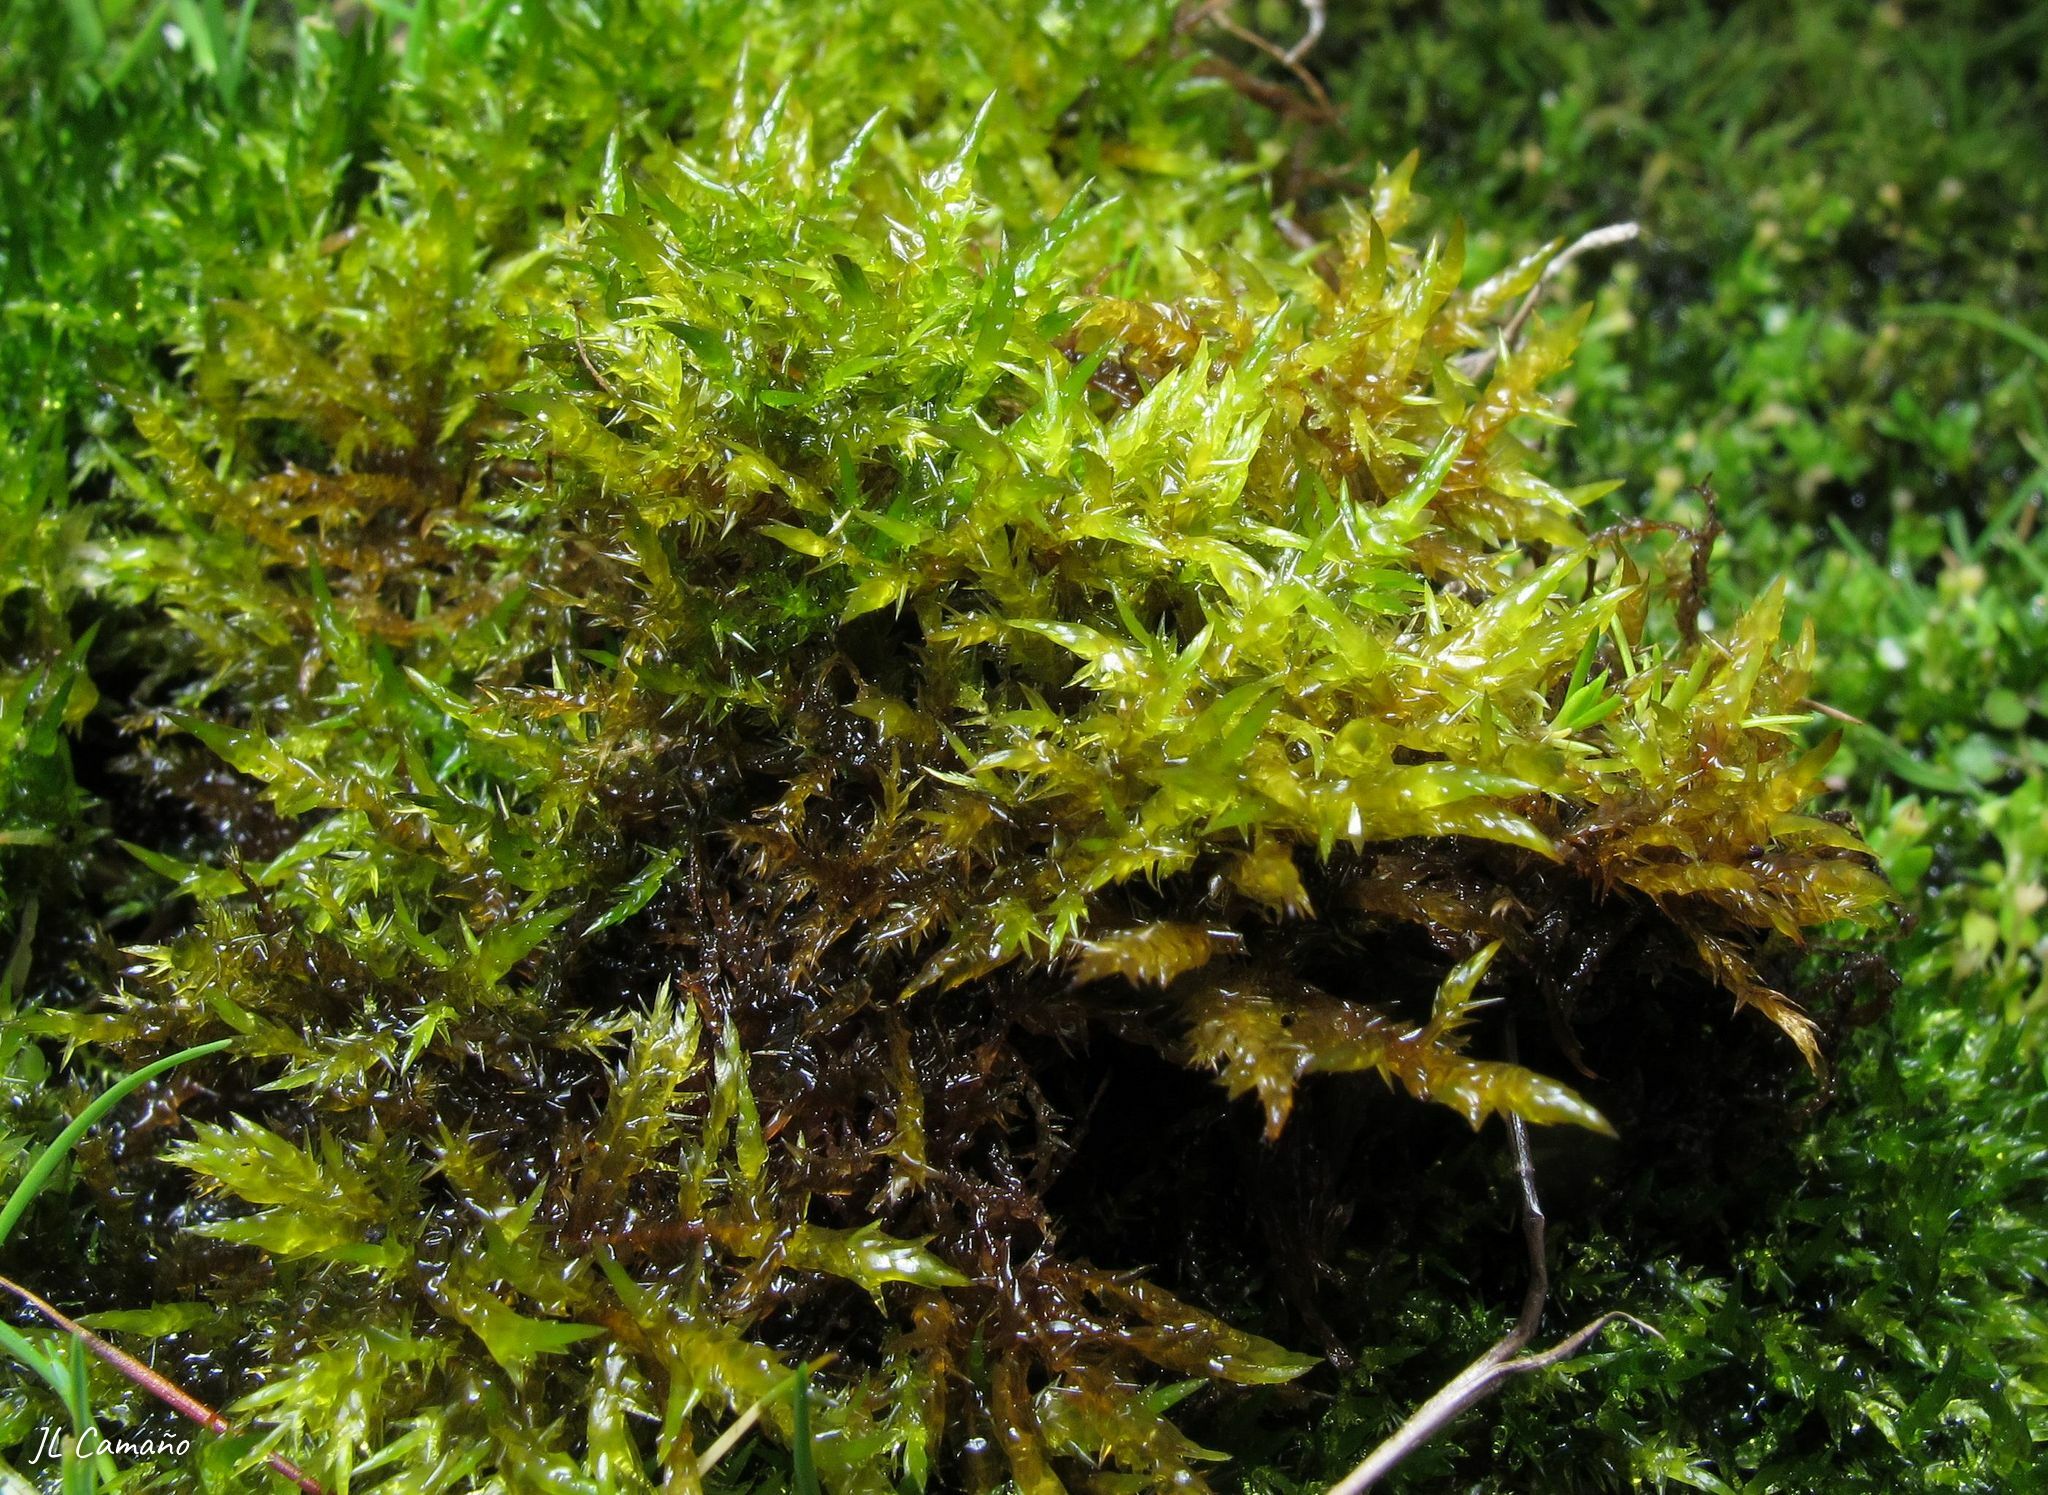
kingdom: Plantae
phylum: Bryophyta
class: Bryopsida
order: Hypnales
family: Pylaisiaceae
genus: Calliergonella
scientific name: Calliergonella cuspidata
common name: Common large wetland moss
